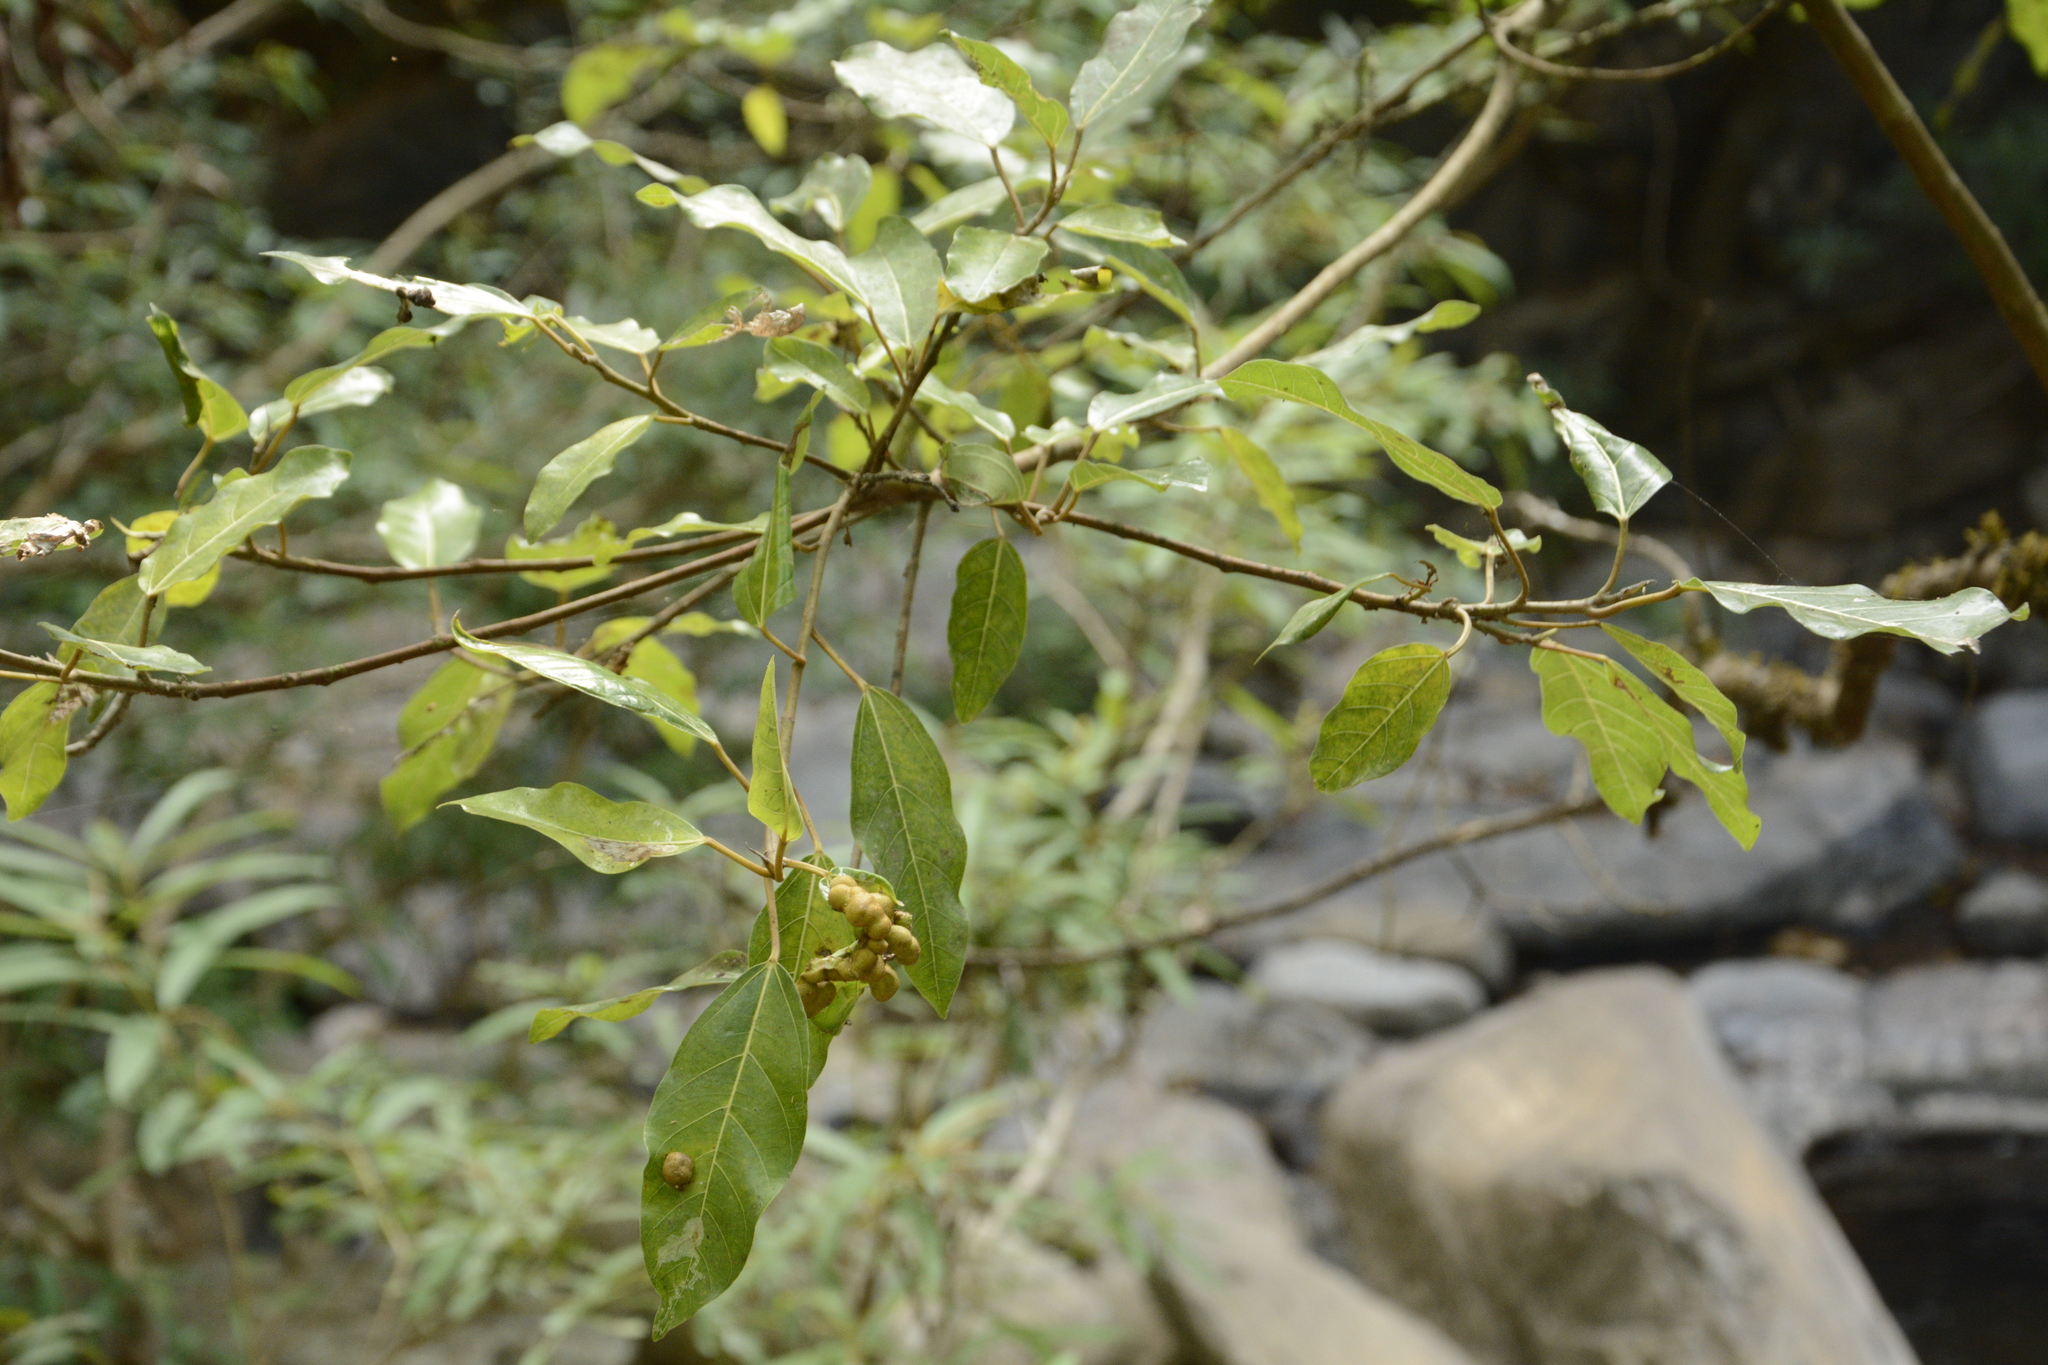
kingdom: Plantae
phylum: Tracheophyta
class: Magnoliopsida
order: Rosales
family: Moraceae
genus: Ficus
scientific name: Ficus racemosa
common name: Cluster fig
